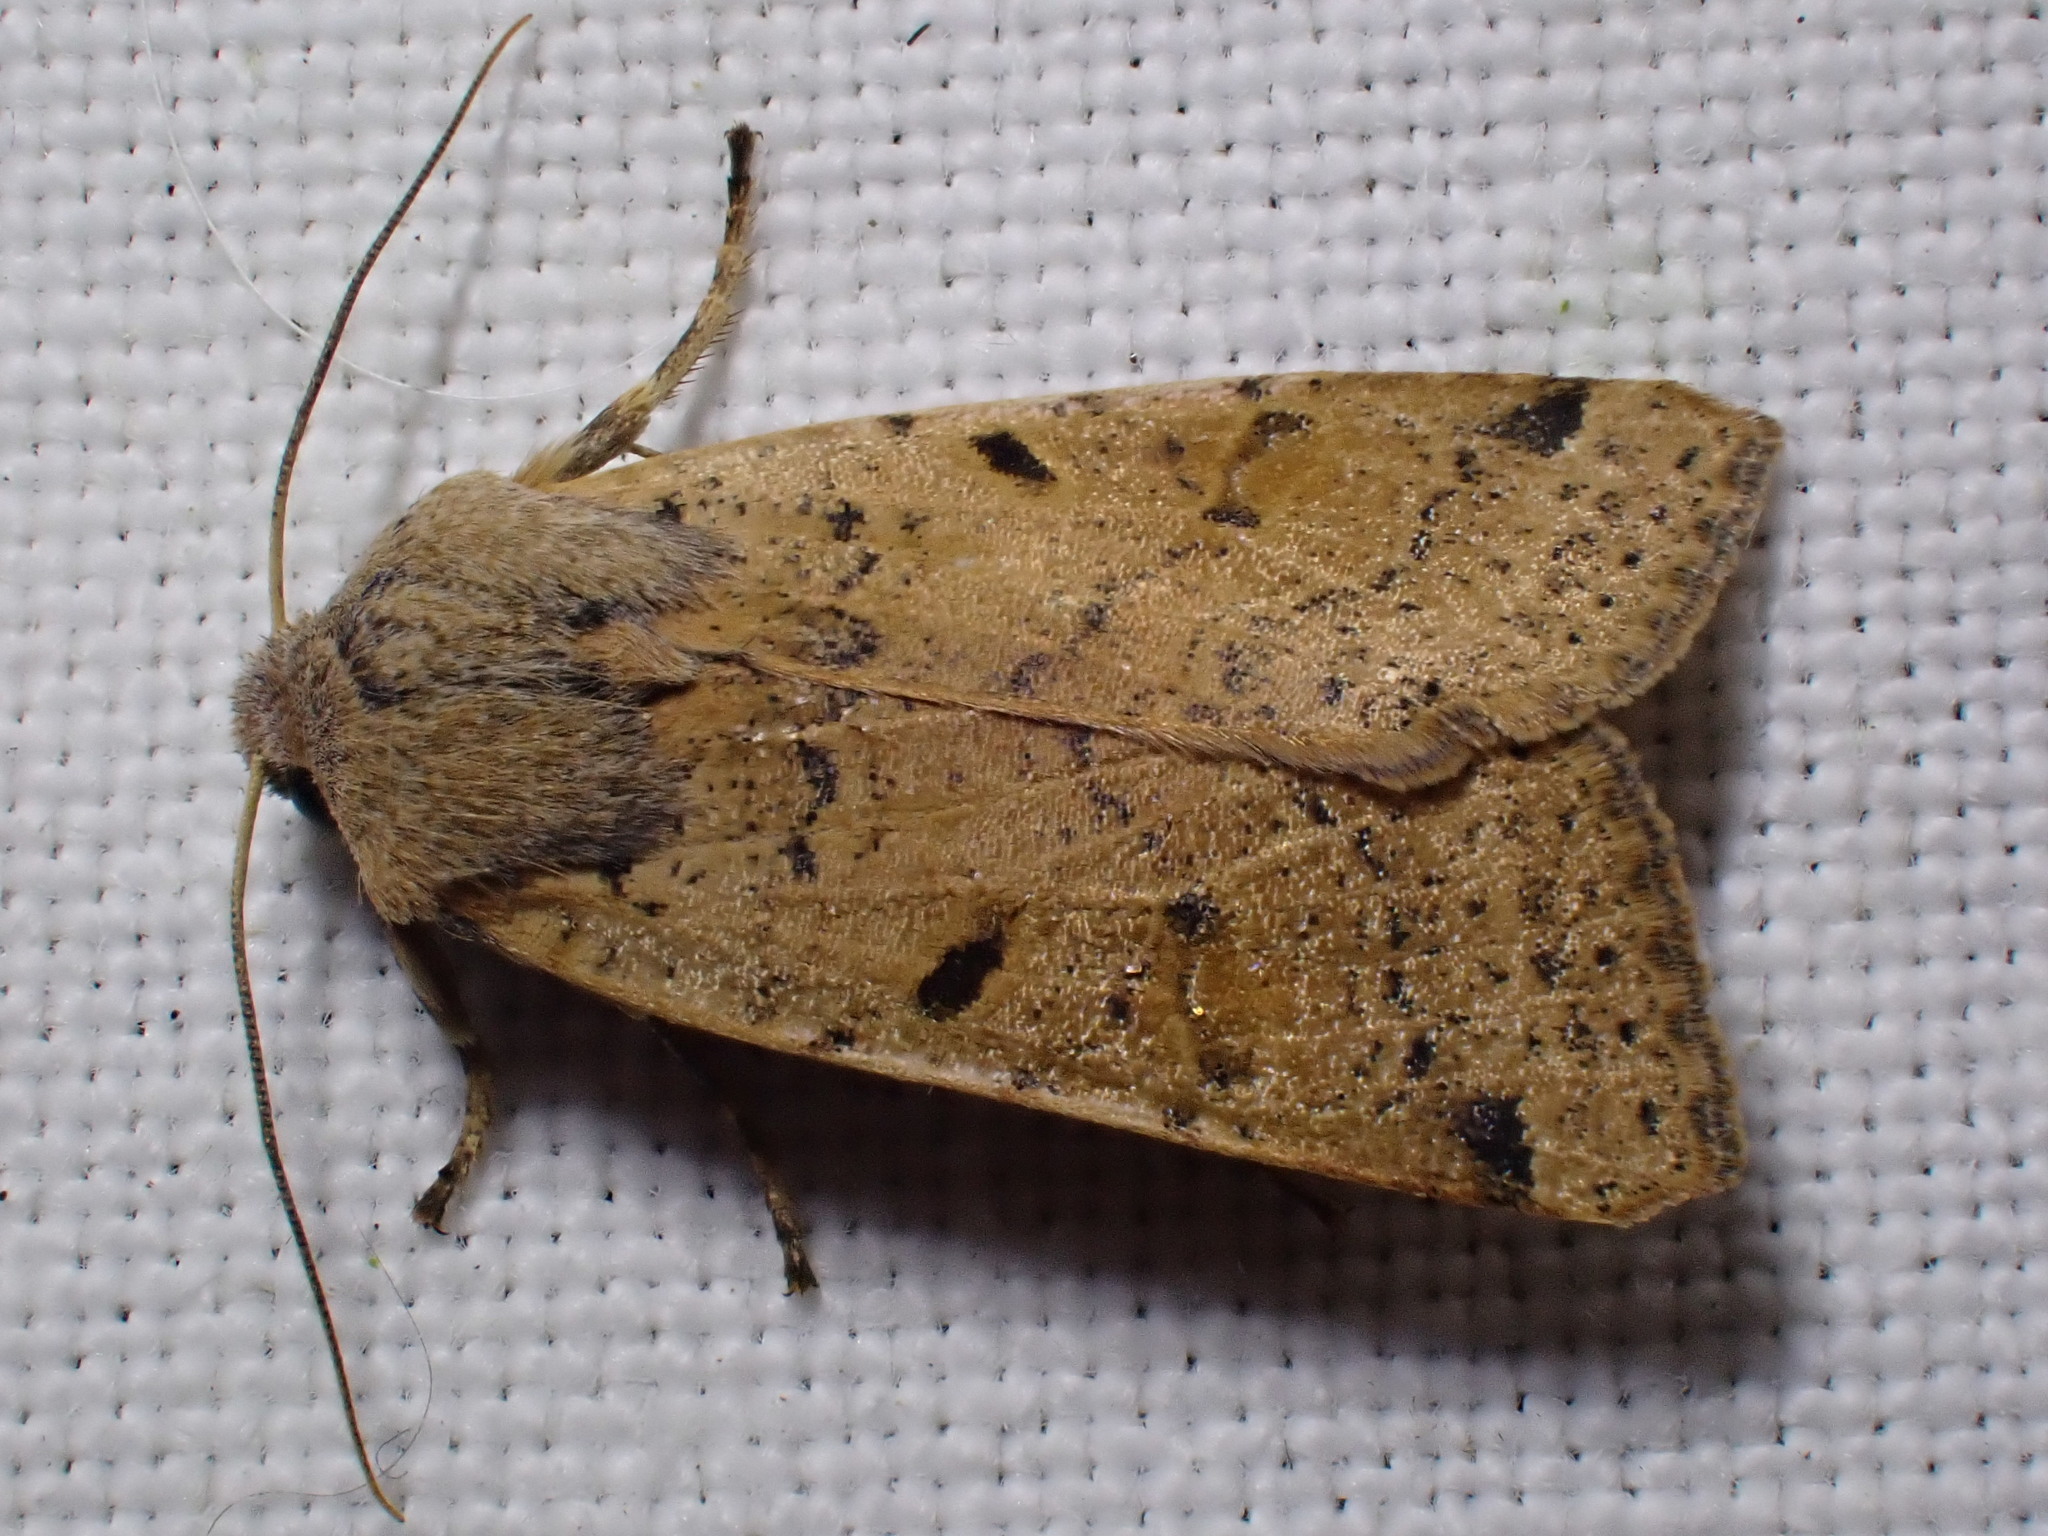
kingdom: Animalia
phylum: Arthropoda
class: Insecta
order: Lepidoptera
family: Noctuidae
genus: Agrochola
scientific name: Agrochola lychnidis
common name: Beaded chestnut
